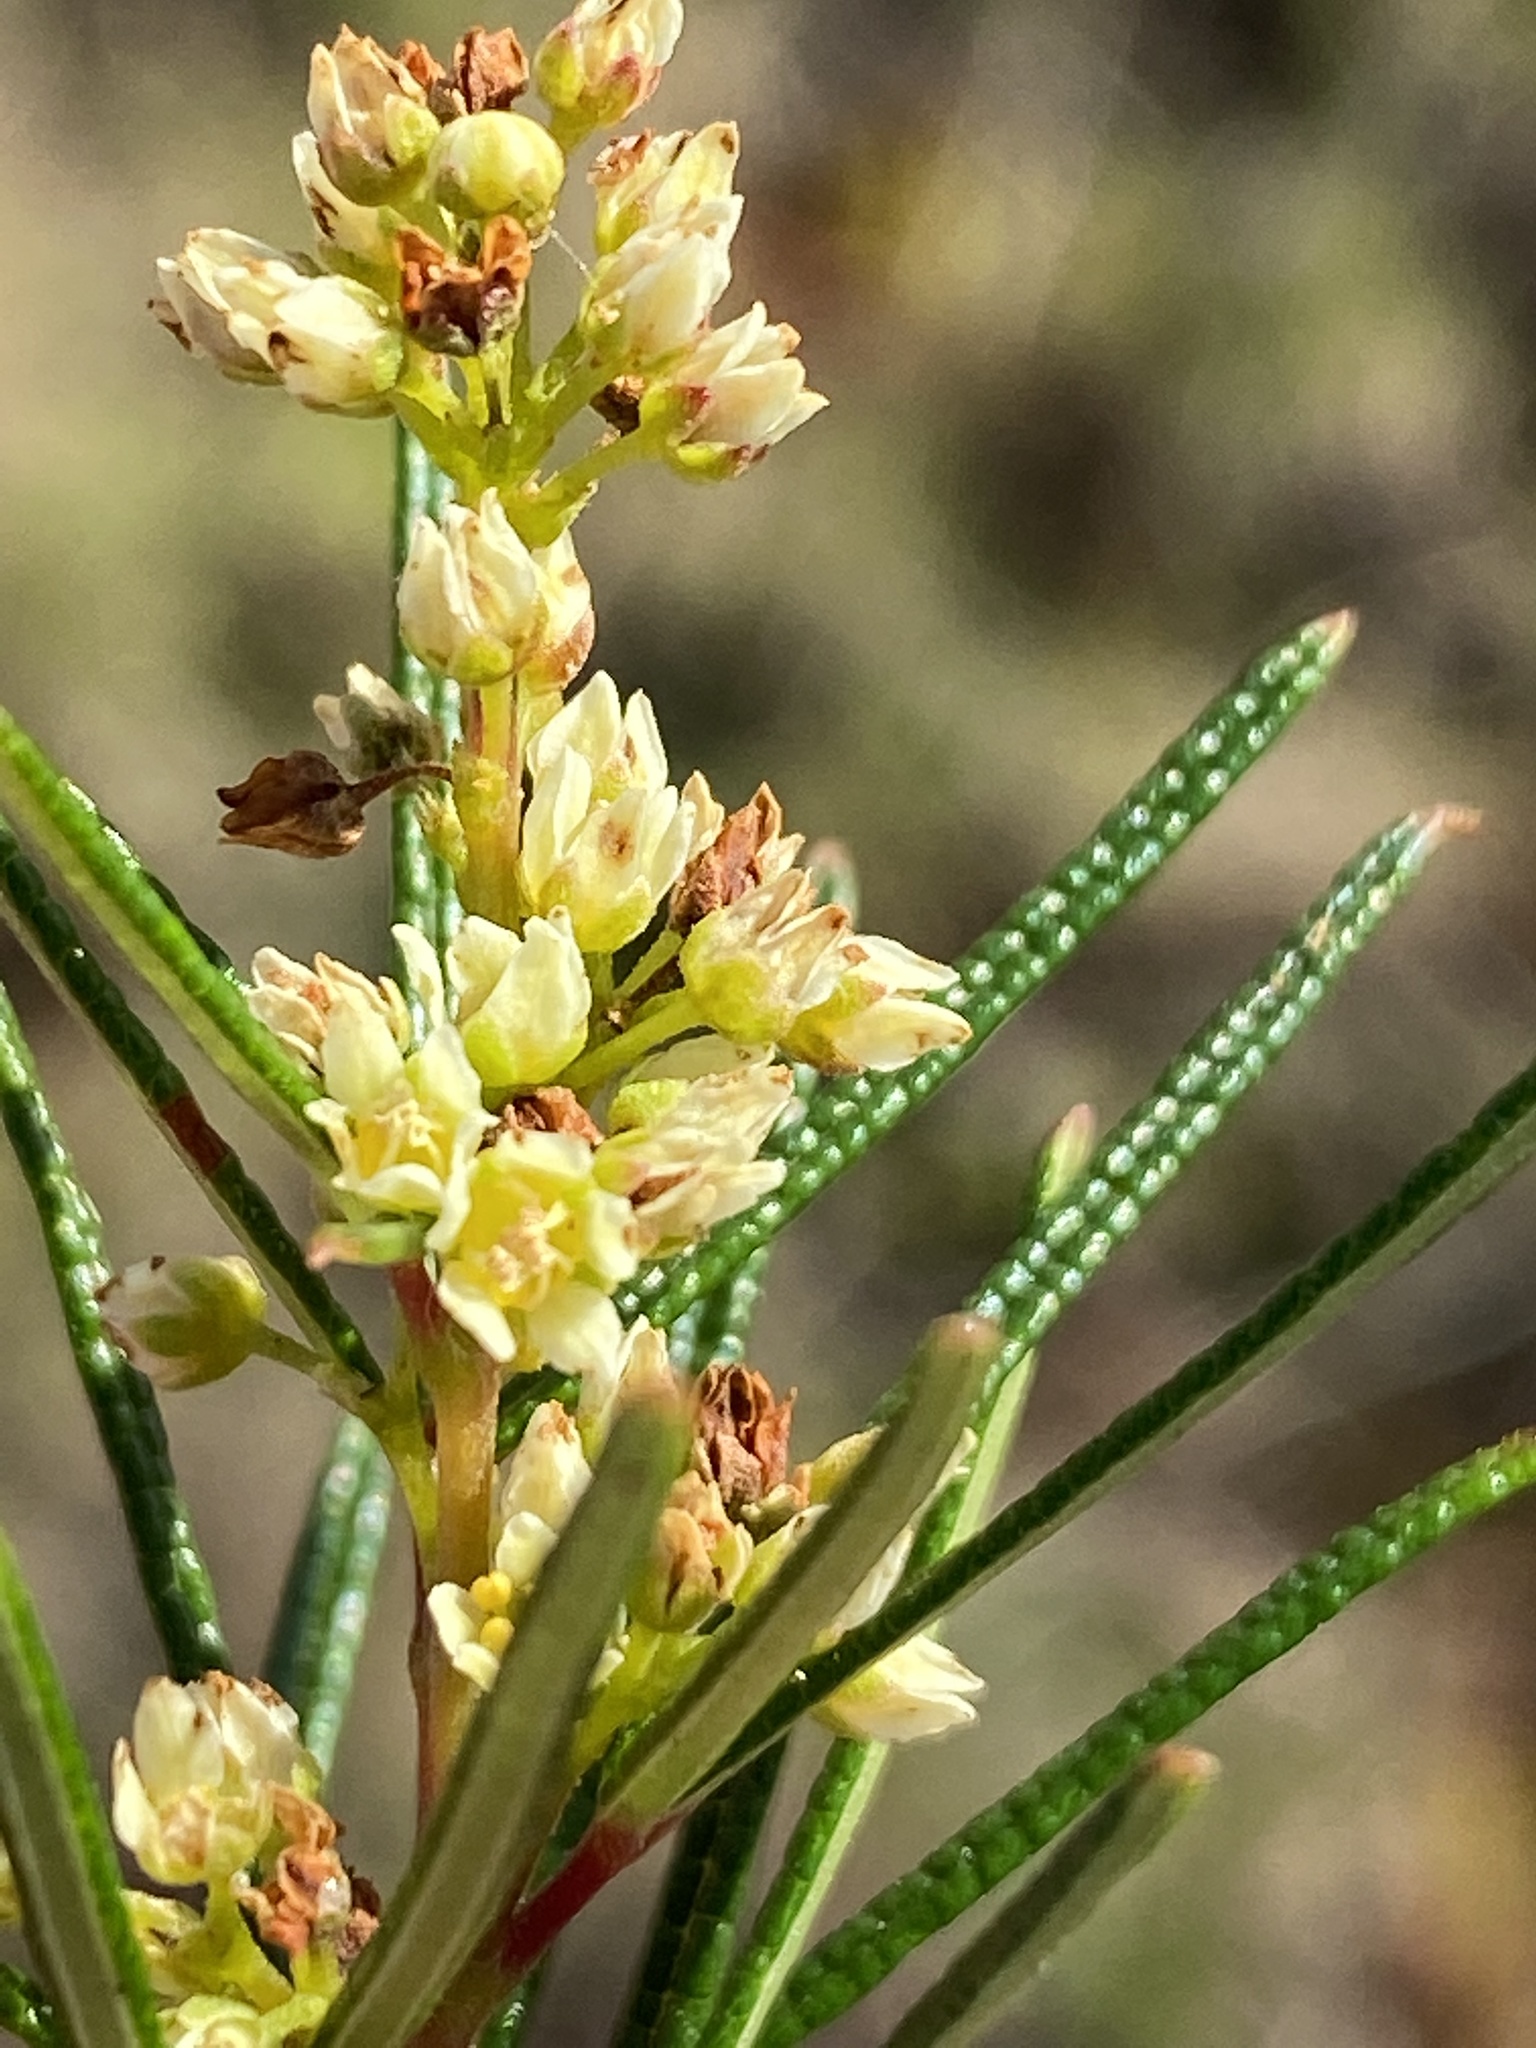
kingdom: Plantae
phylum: Tracheophyta
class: Magnoliopsida
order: Sapindales
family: Anacardiaceae
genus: Searsia
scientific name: Searsia rosmarinifolia
